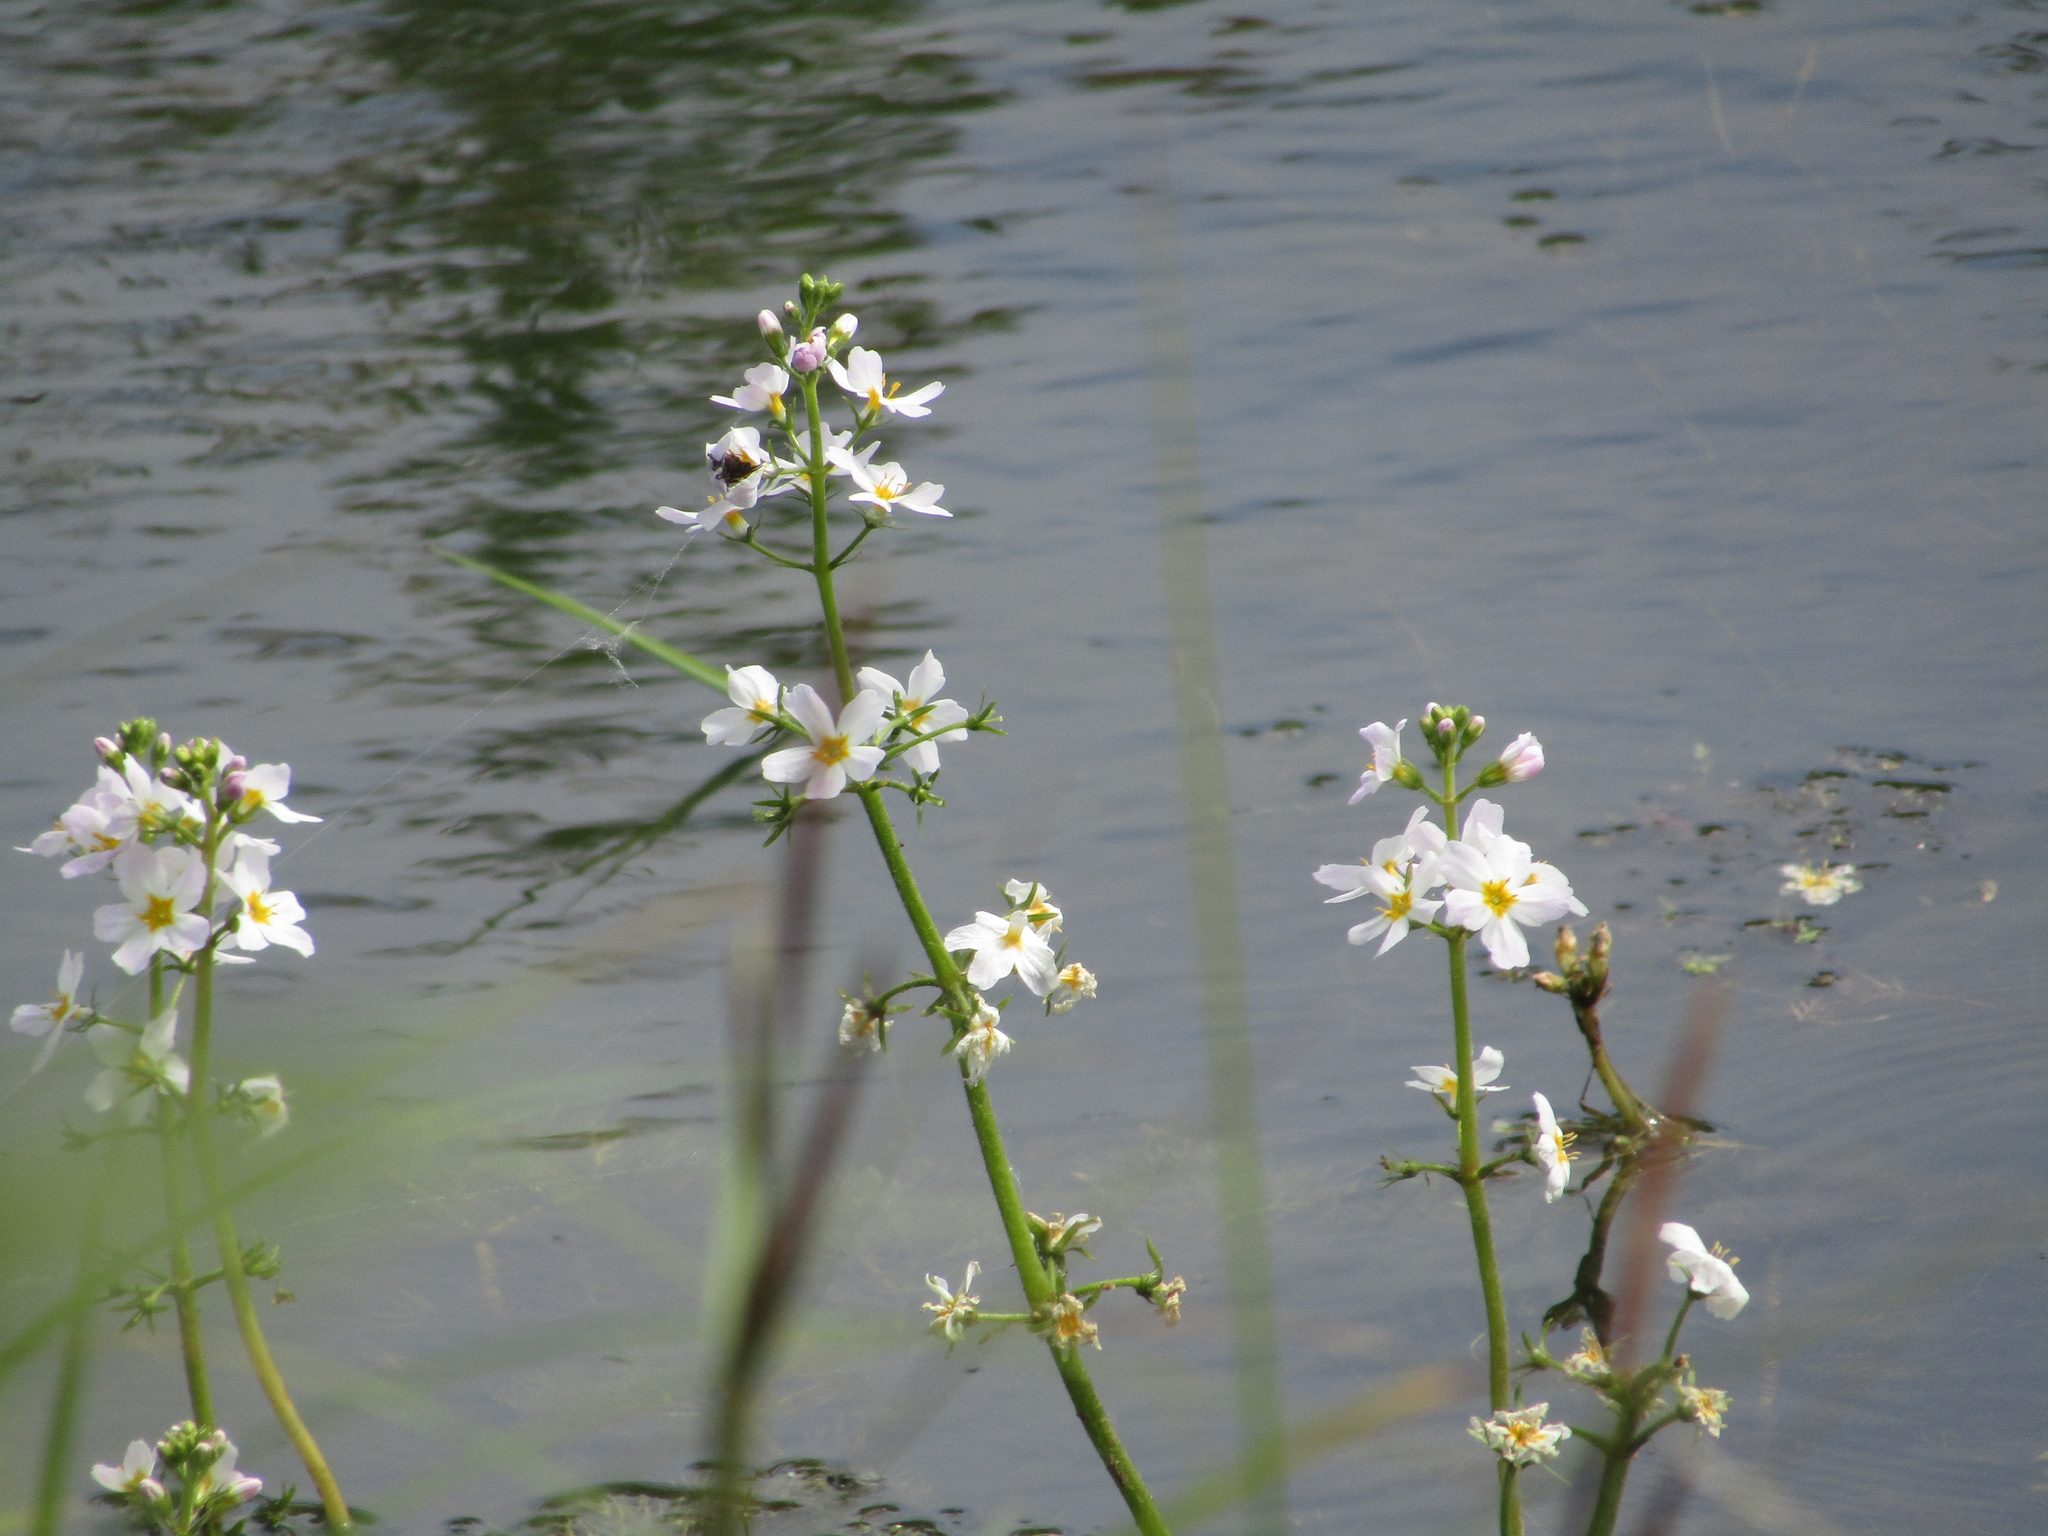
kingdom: Plantae
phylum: Tracheophyta
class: Magnoliopsida
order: Ericales
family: Primulaceae
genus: Hottonia
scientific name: Hottonia palustris
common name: Water-violet
